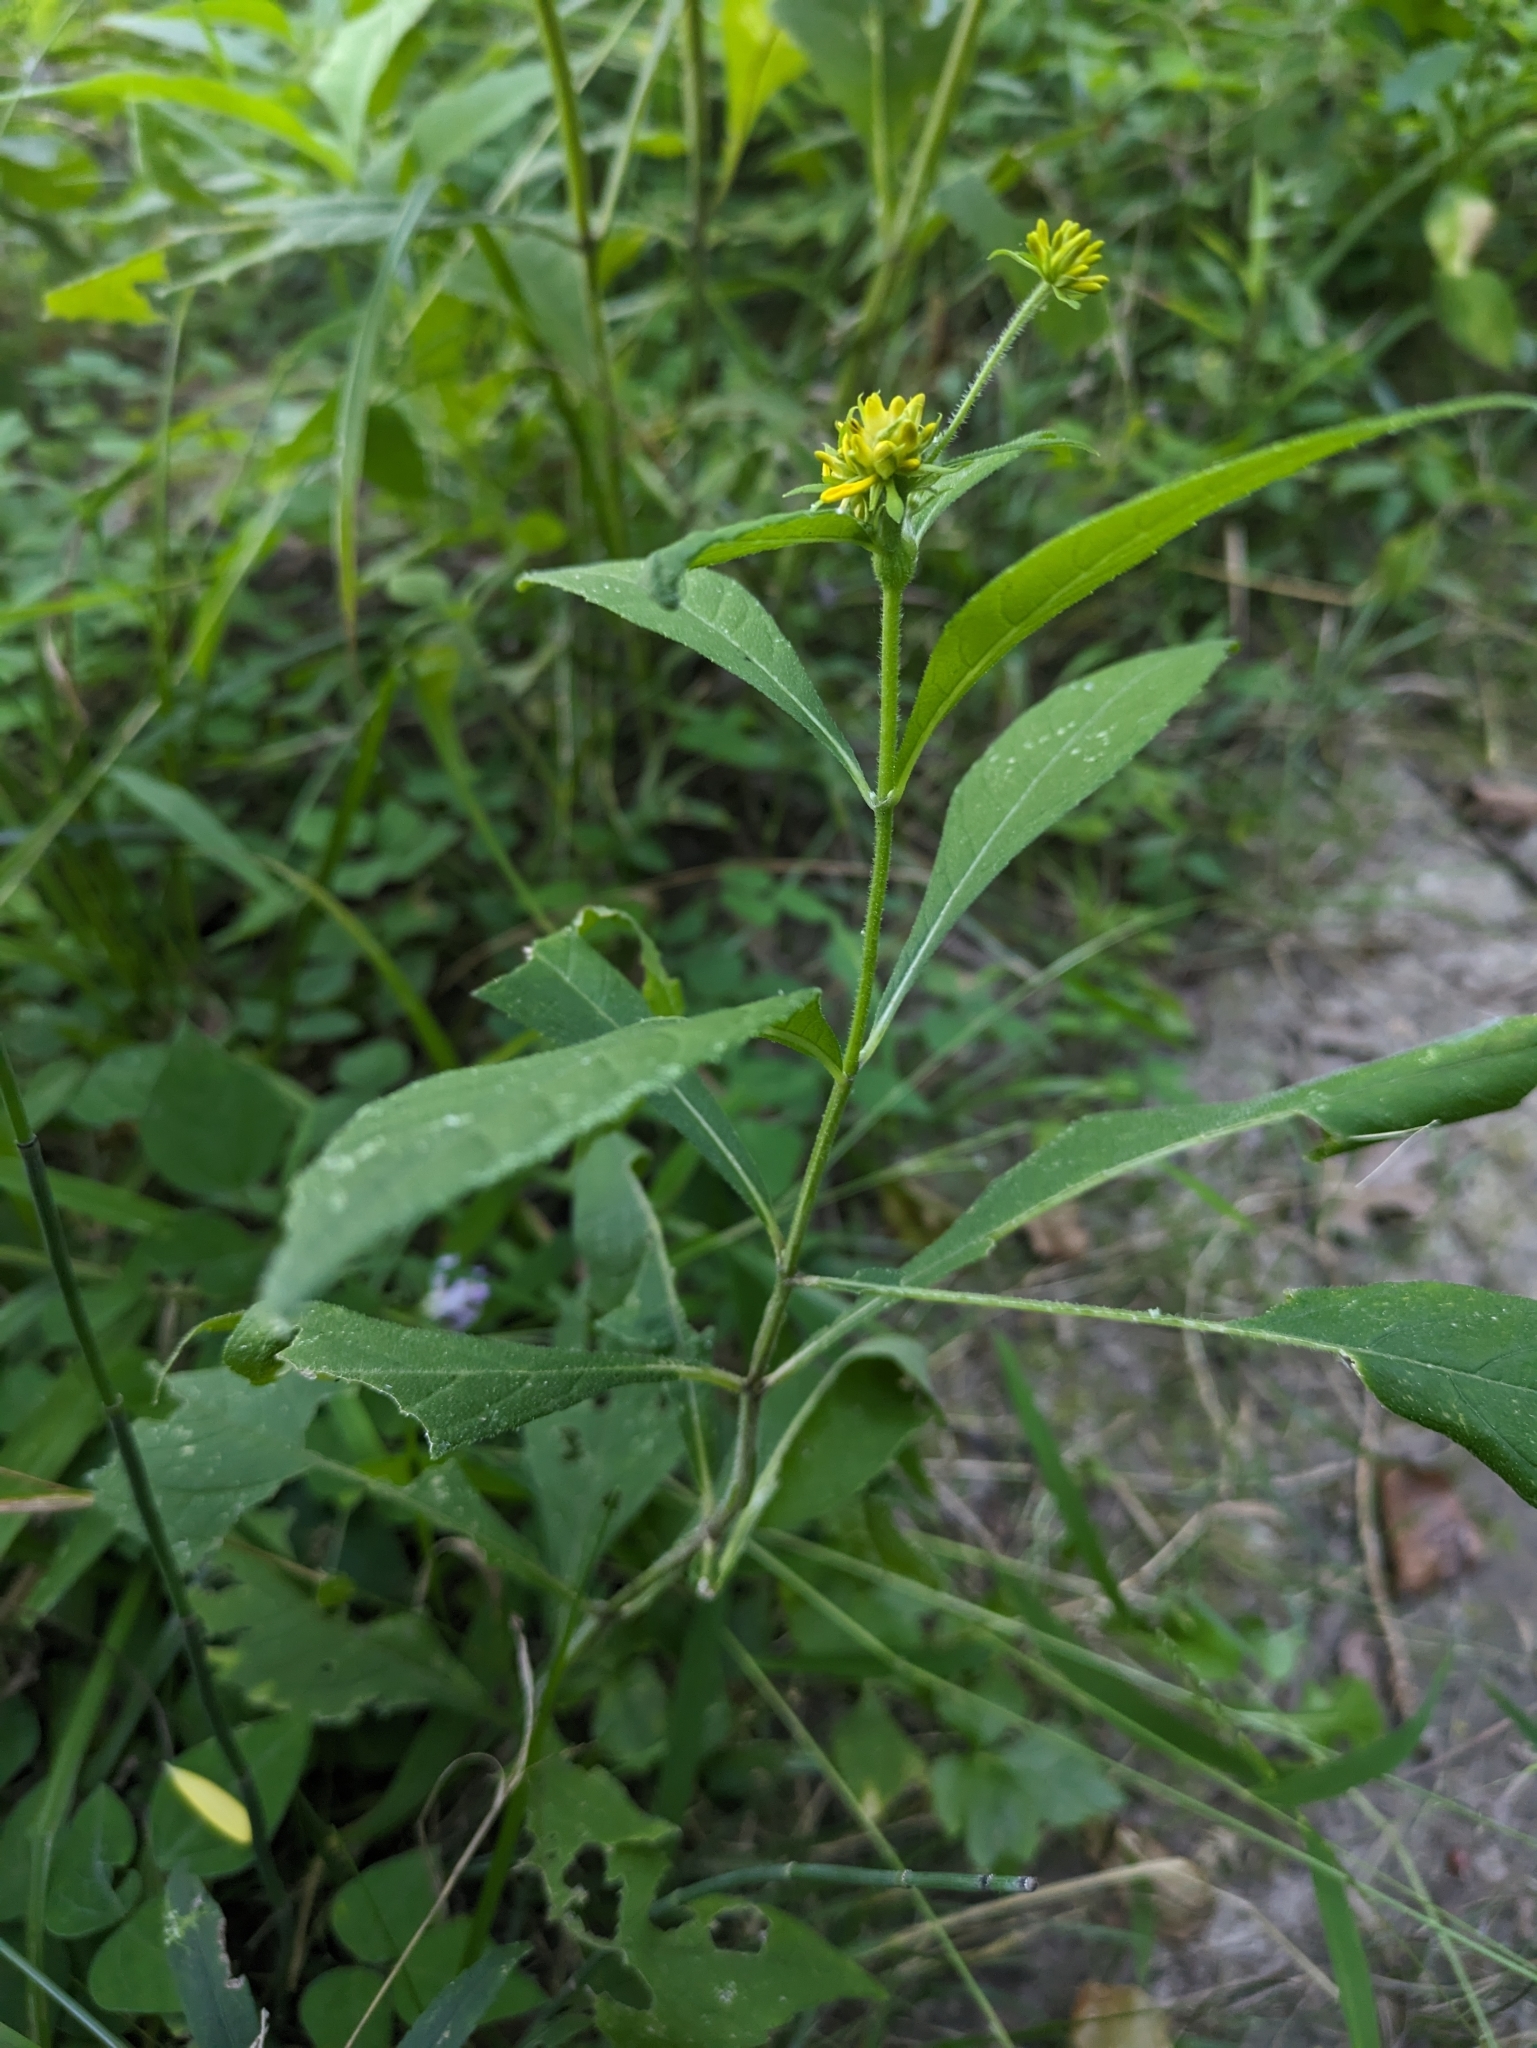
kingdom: Plantae
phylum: Tracheophyta
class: Magnoliopsida
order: Asterales
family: Asteraceae
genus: Verbesina
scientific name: Verbesina alternifolia
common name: Wingstem
